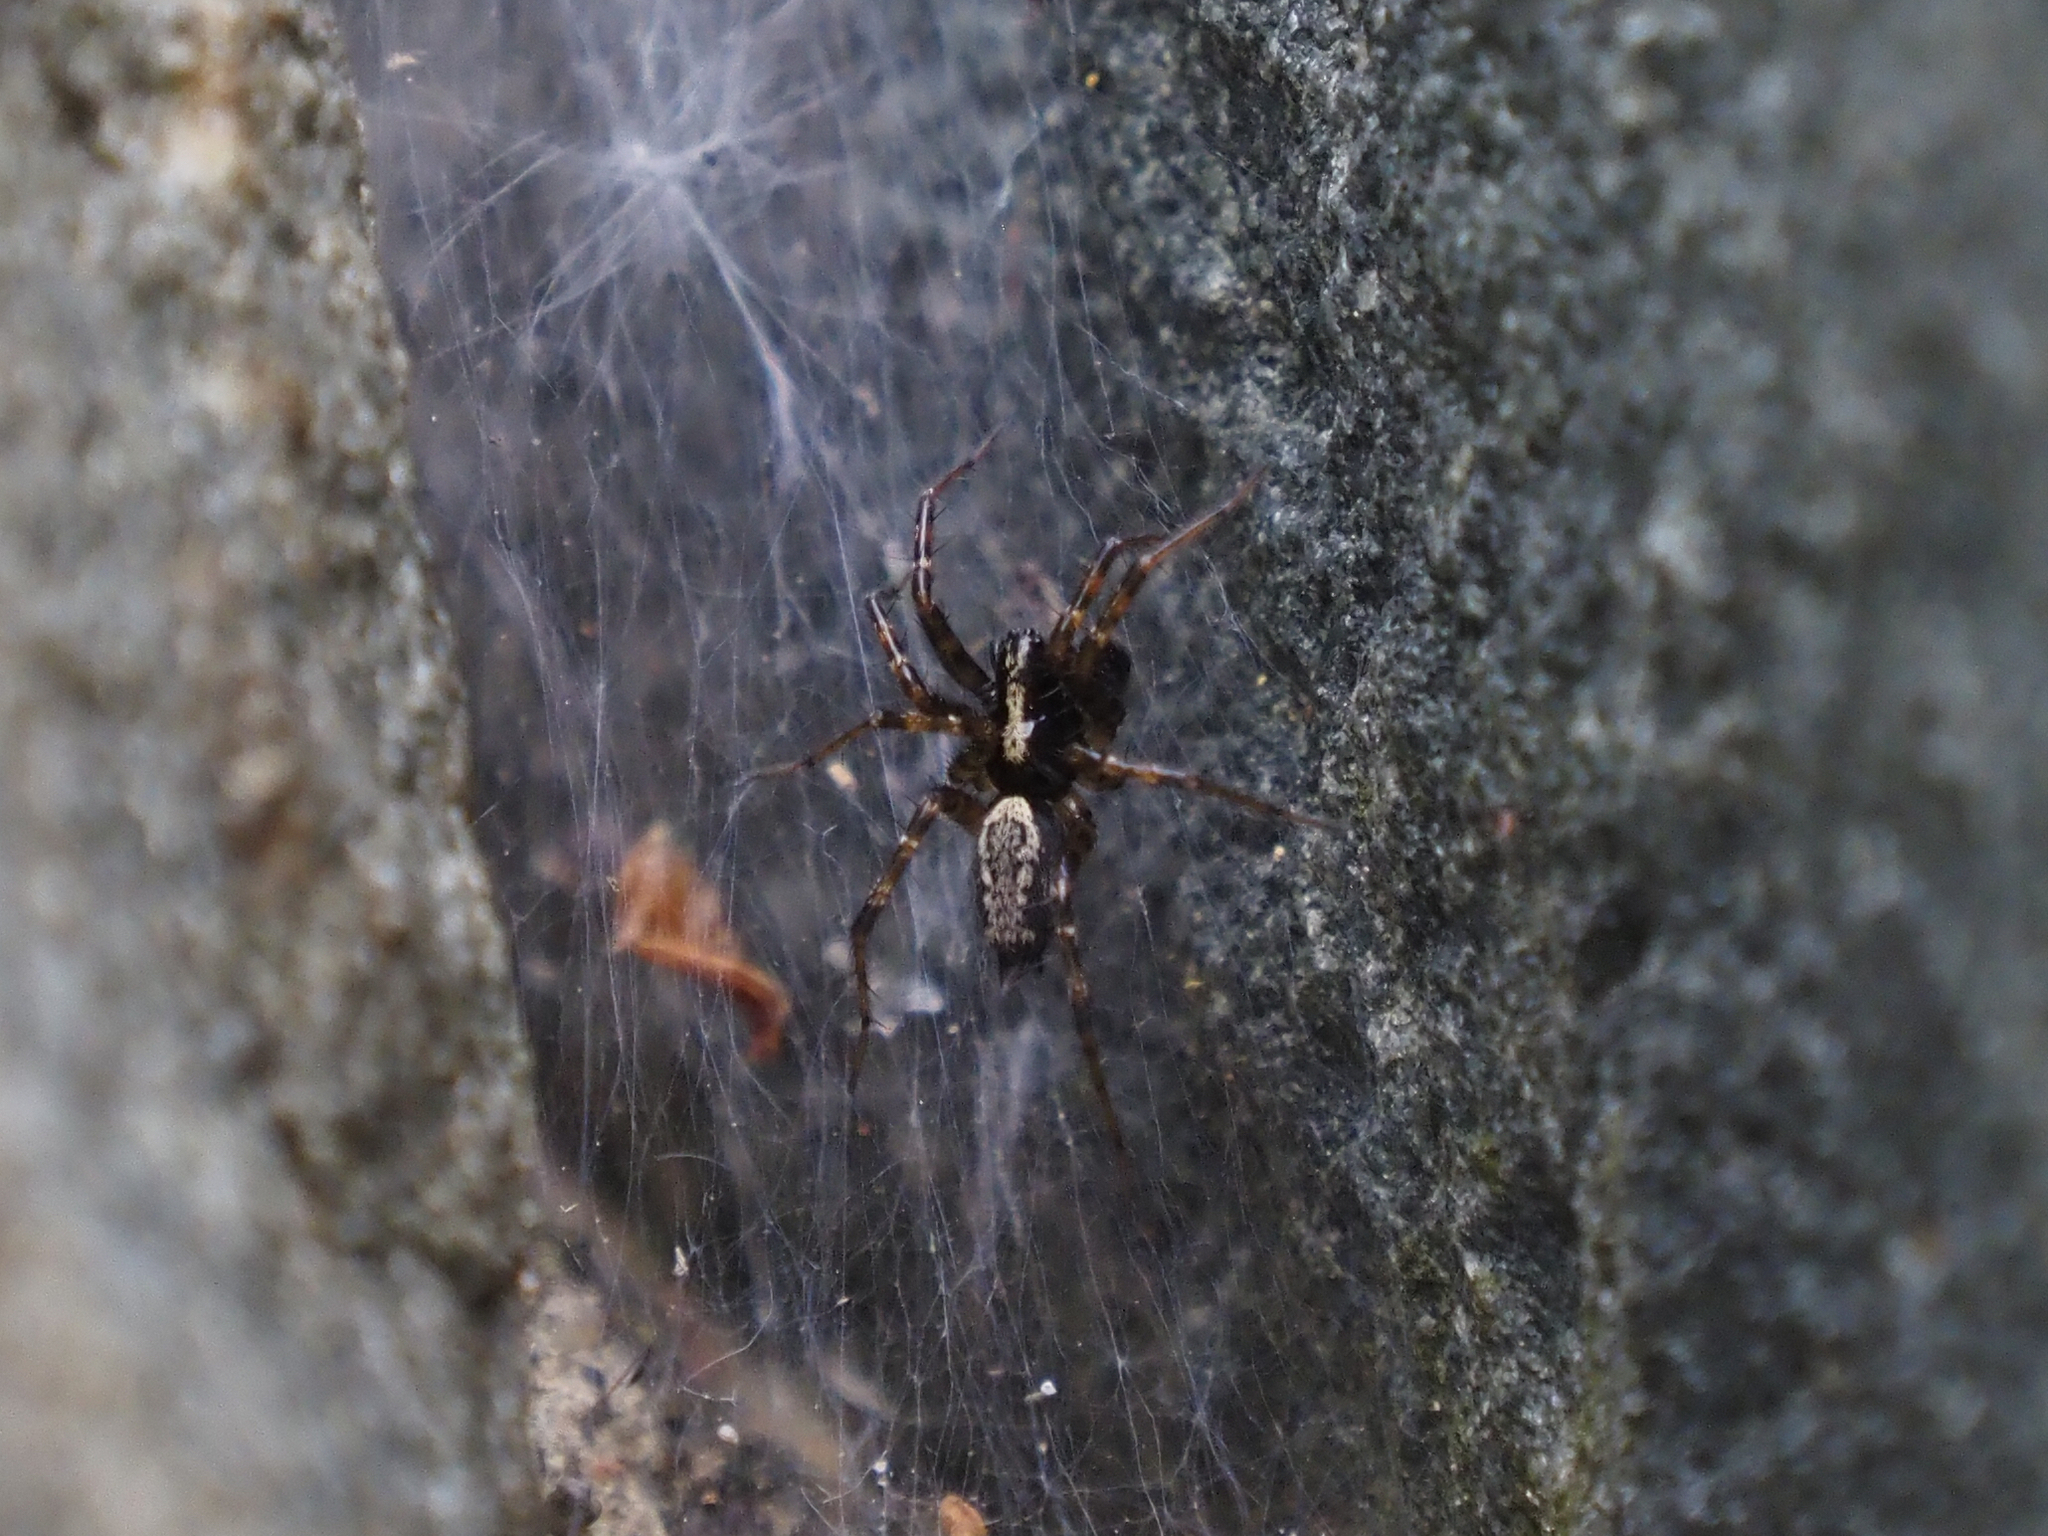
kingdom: Animalia
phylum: Arthropoda
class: Arachnida
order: Araneae
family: Agelenidae
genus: Textrix
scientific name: Textrix denticulata
